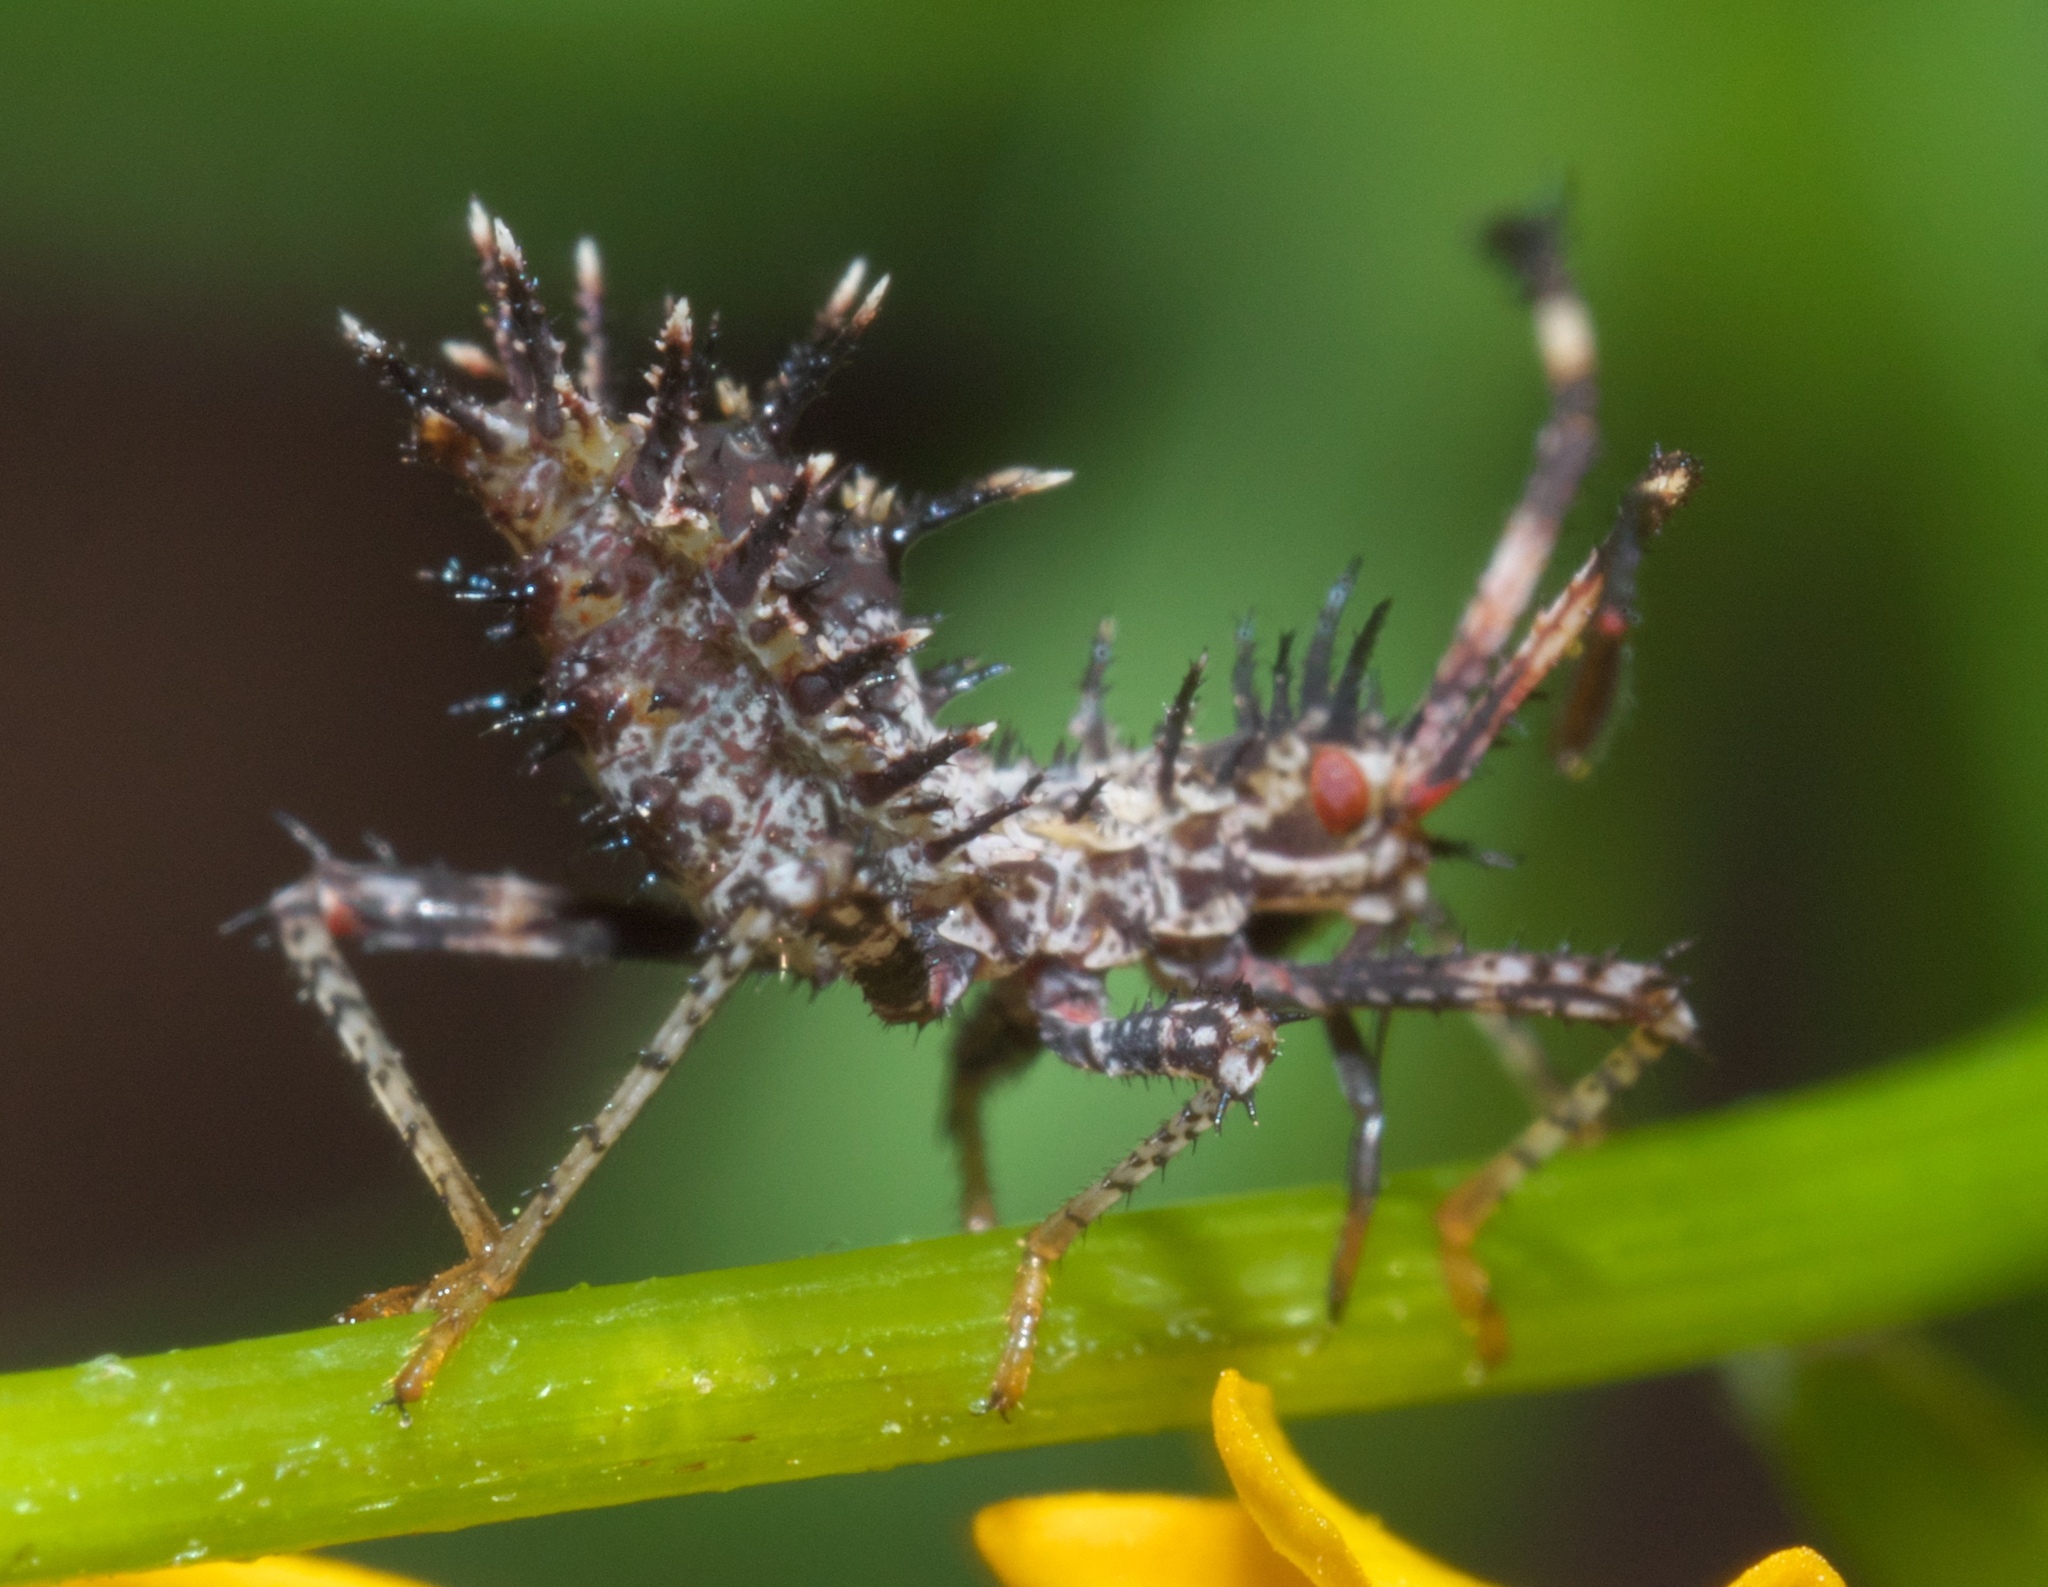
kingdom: Animalia
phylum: Arthropoda
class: Insecta
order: Hemiptera
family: Coreidae
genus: Euthochtha
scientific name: Euthochtha galeator
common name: Helmeted squash bug
